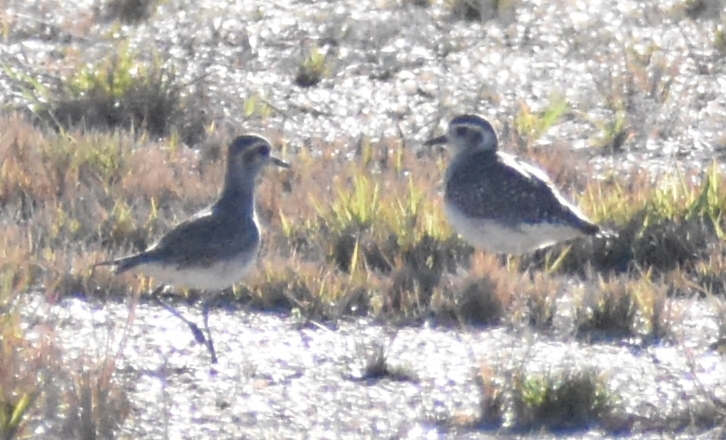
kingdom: Animalia
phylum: Chordata
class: Aves
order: Charadriiformes
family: Charadriidae
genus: Pluvialis
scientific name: Pluvialis dominica
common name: American golden plover
